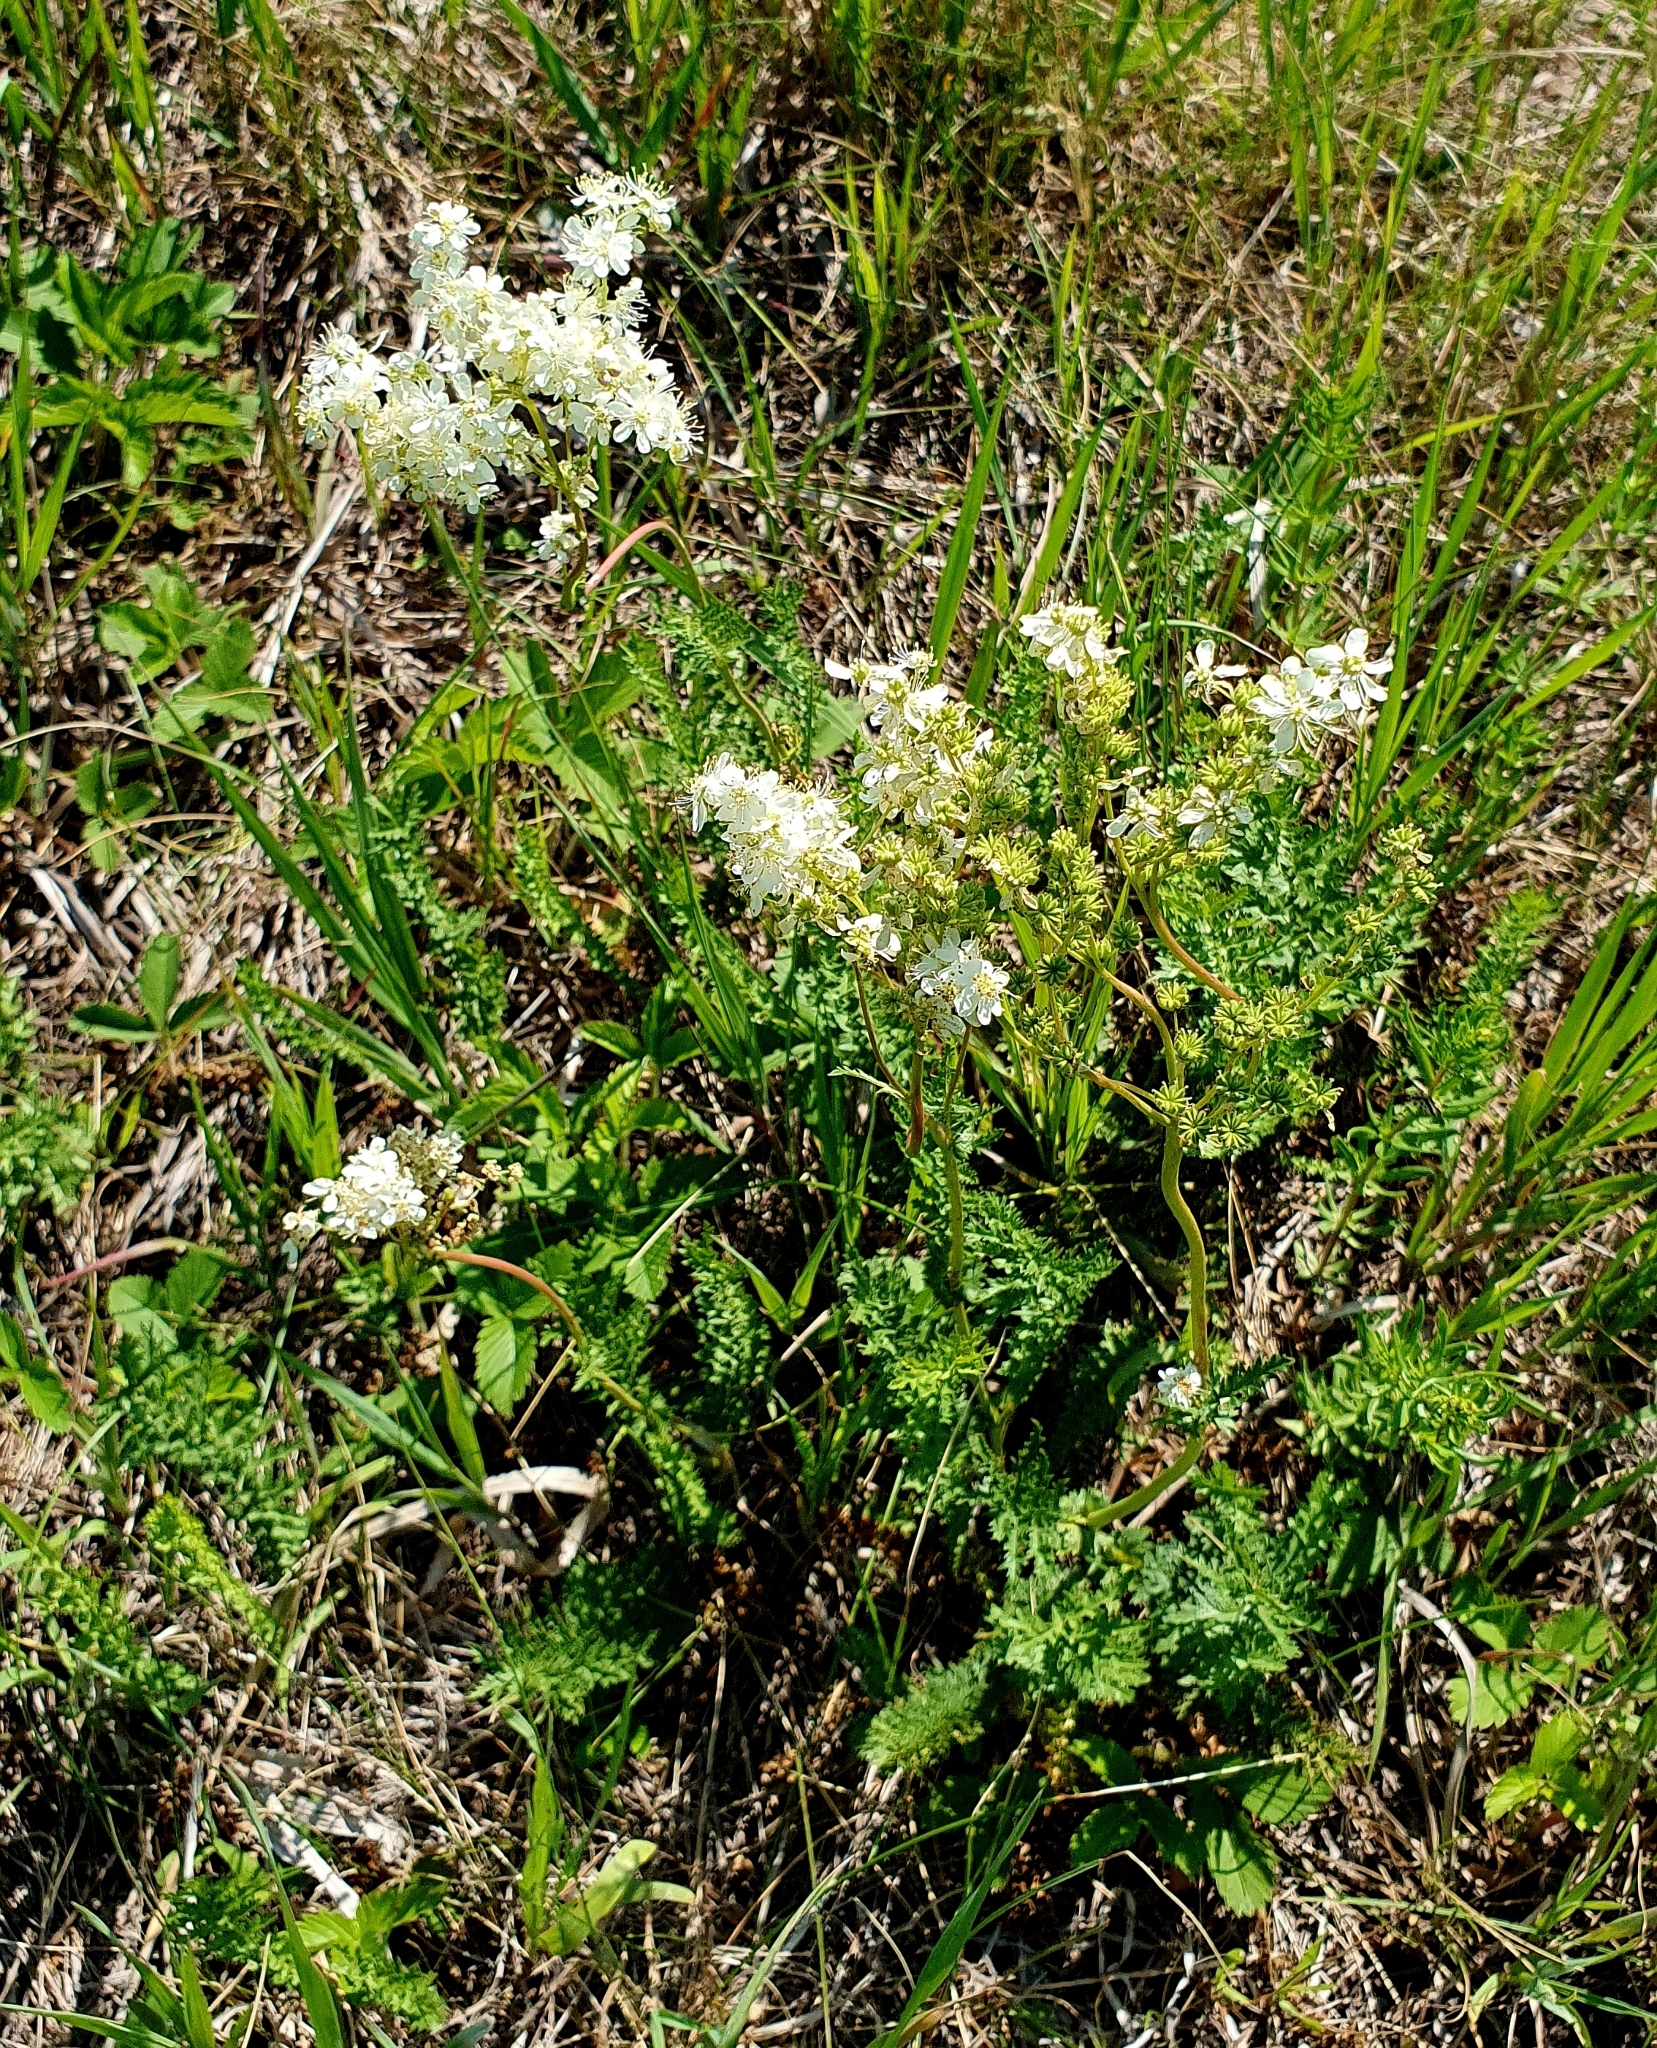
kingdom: Plantae
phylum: Tracheophyta
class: Magnoliopsida
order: Rosales
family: Rosaceae
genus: Filipendula
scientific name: Filipendula vulgaris
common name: Dropwort
